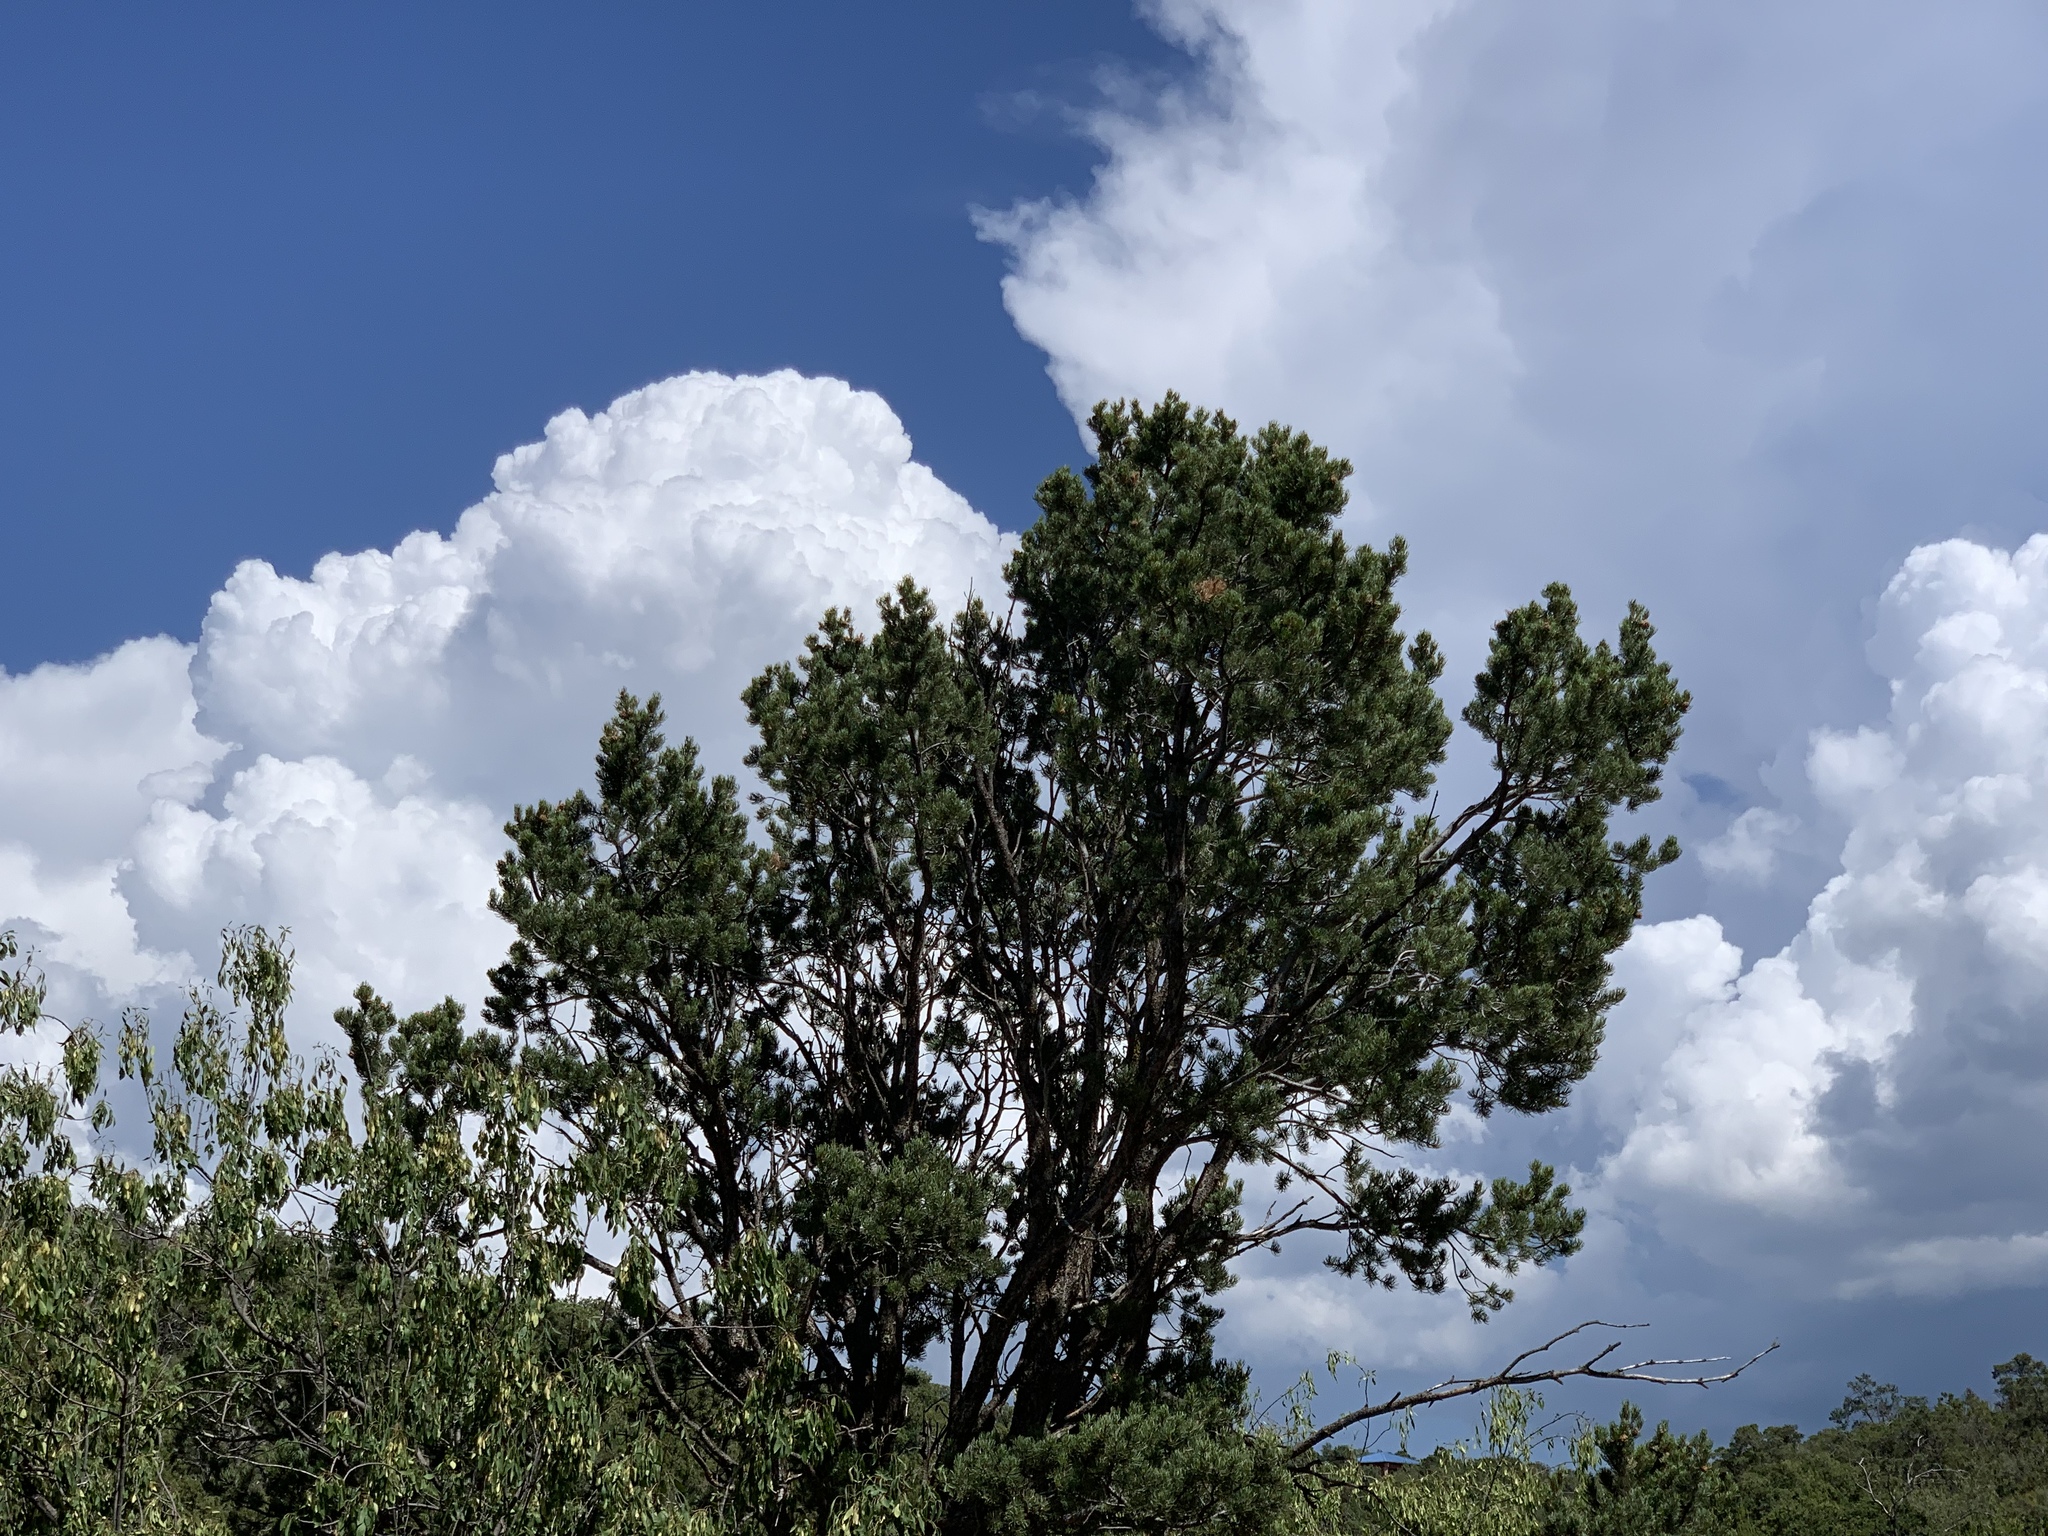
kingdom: Plantae
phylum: Tracheophyta
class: Pinopsida
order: Pinales
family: Pinaceae
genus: Pinus
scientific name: Pinus edulis
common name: Colorado pinyon
